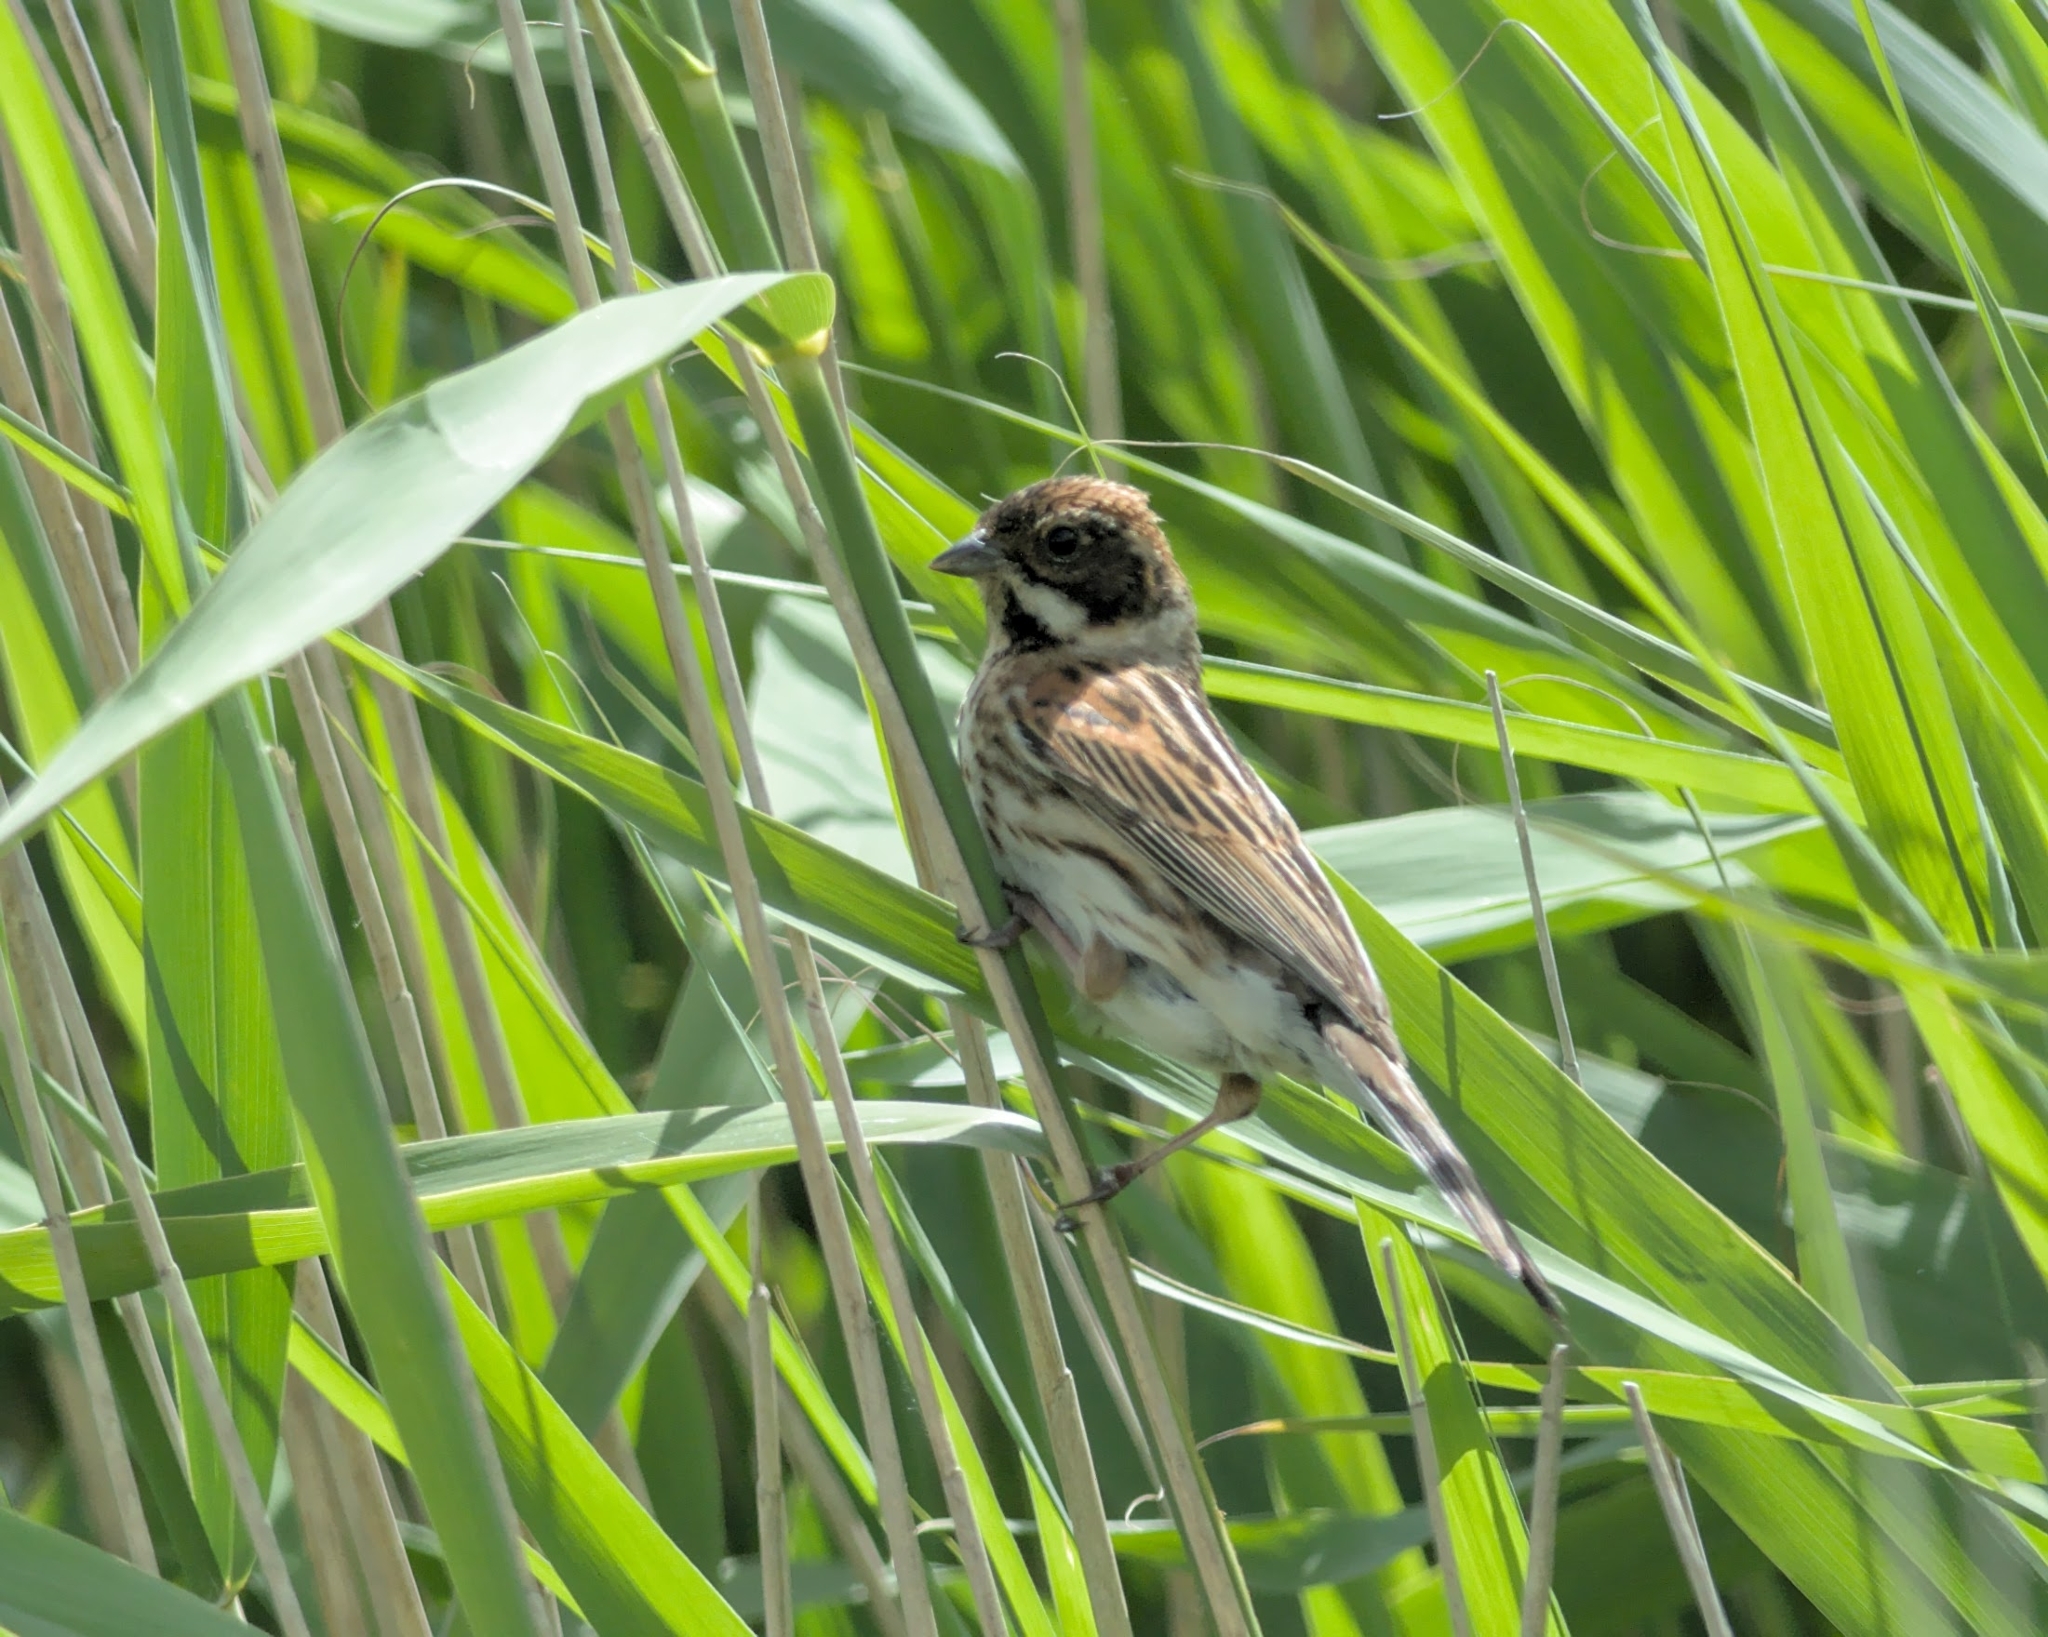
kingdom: Animalia
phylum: Chordata
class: Aves
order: Passeriformes
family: Emberizidae
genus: Emberiza
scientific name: Emberiza schoeniclus
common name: Reed bunting
